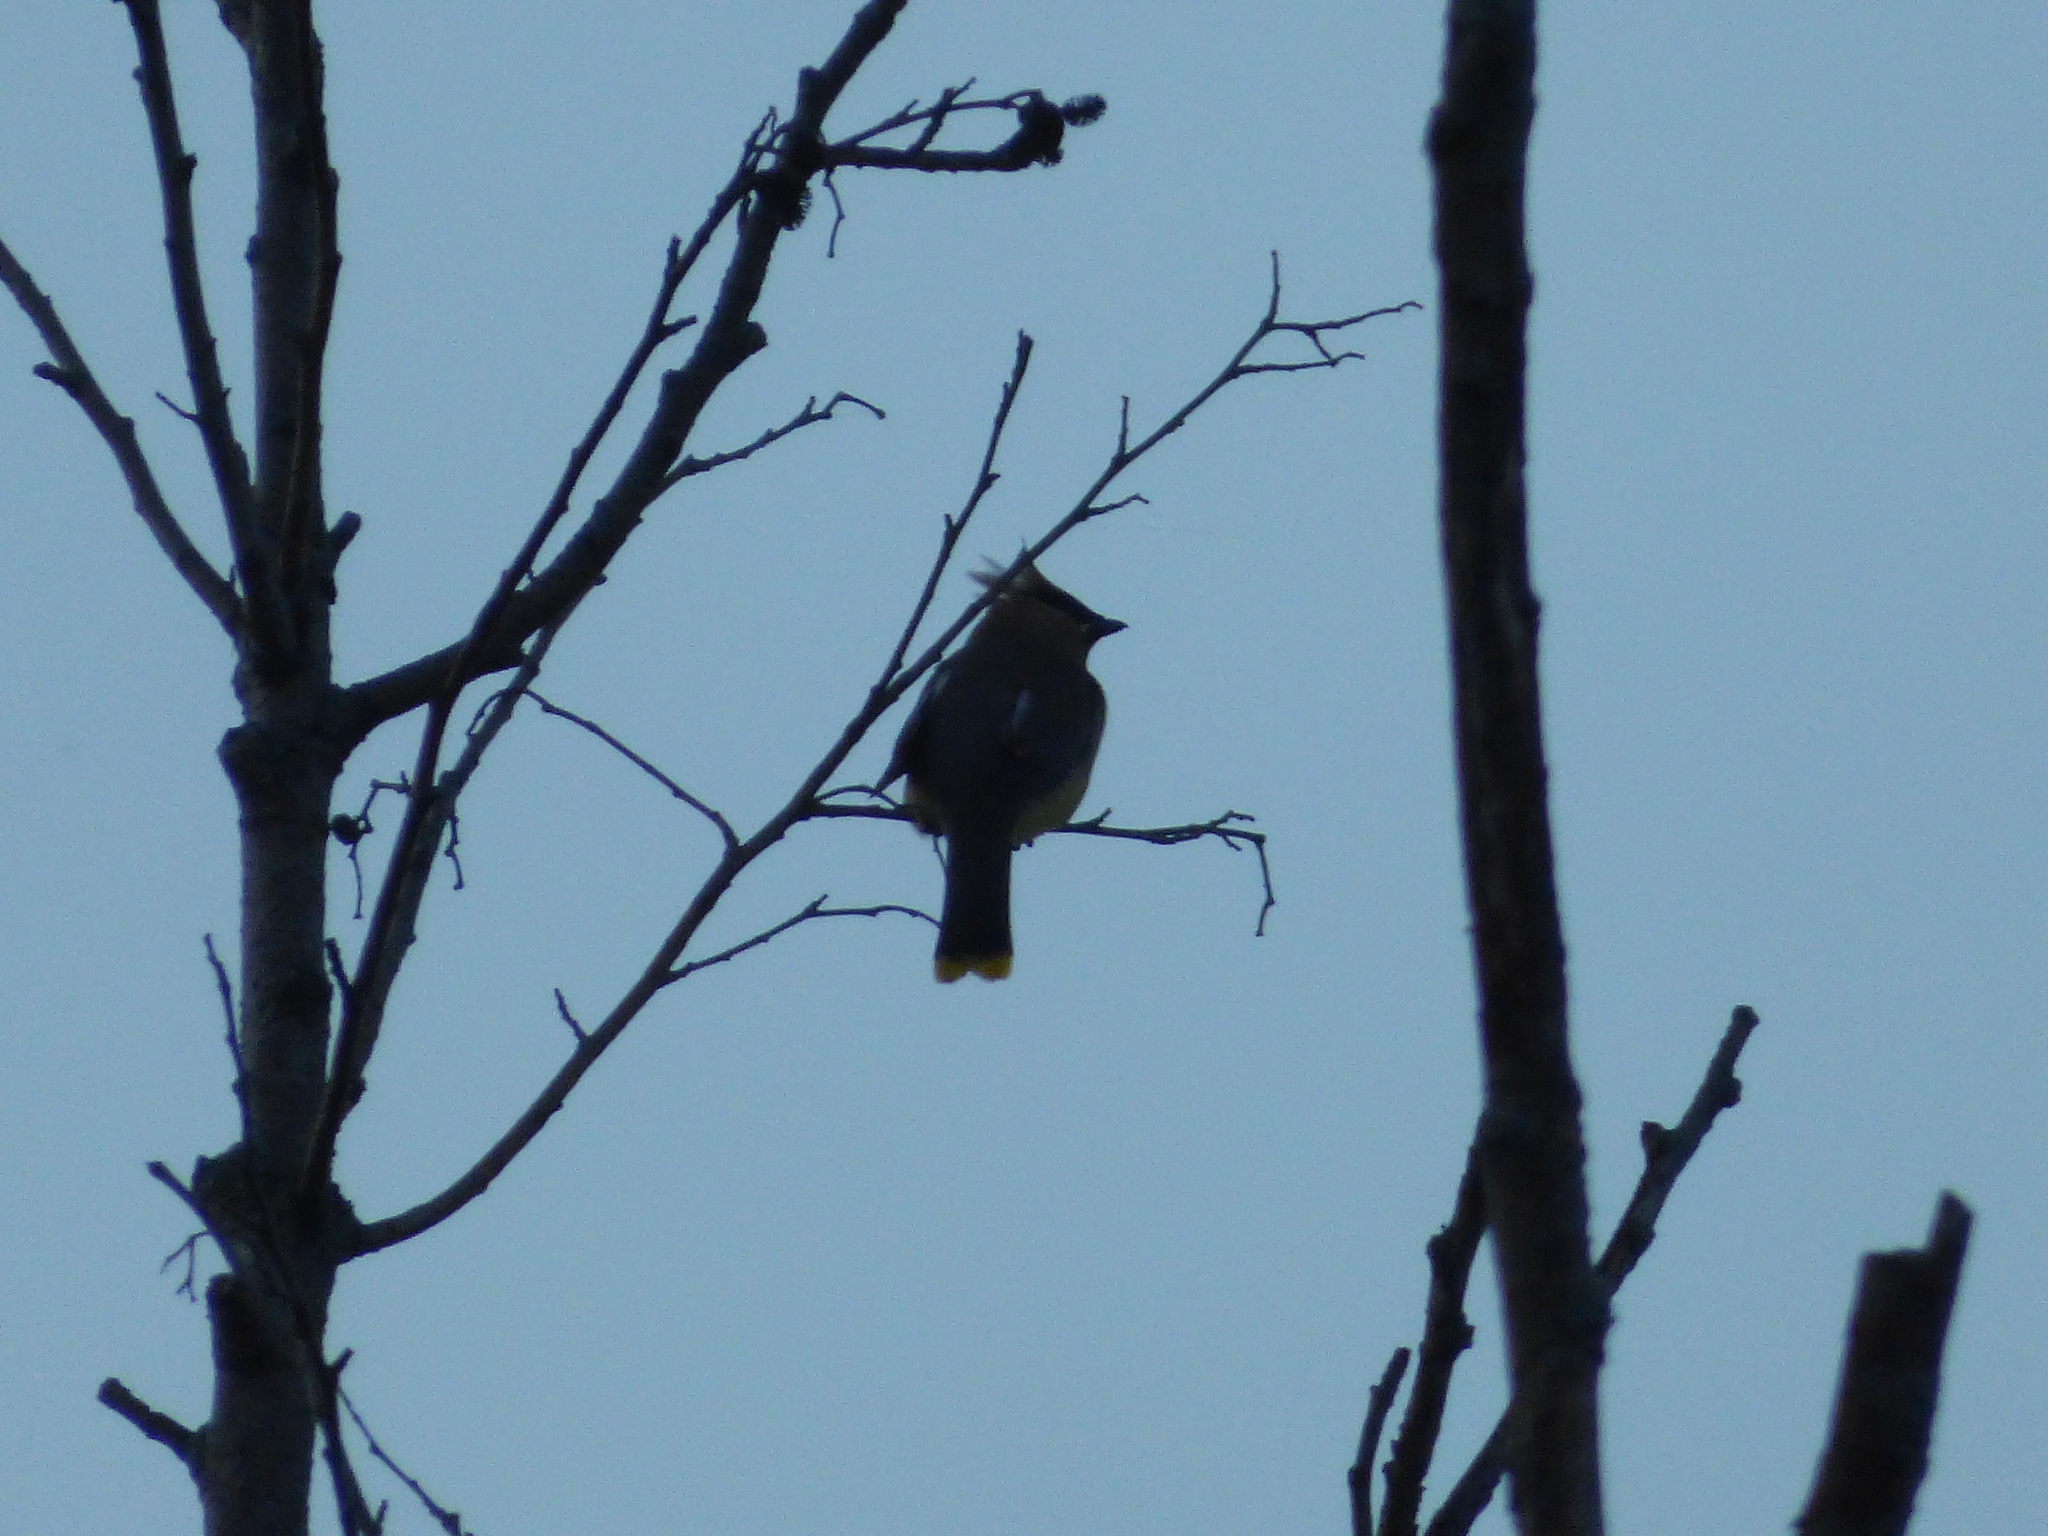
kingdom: Animalia
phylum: Chordata
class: Aves
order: Passeriformes
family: Bombycillidae
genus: Bombycilla
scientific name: Bombycilla cedrorum
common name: Cedar waxwing
